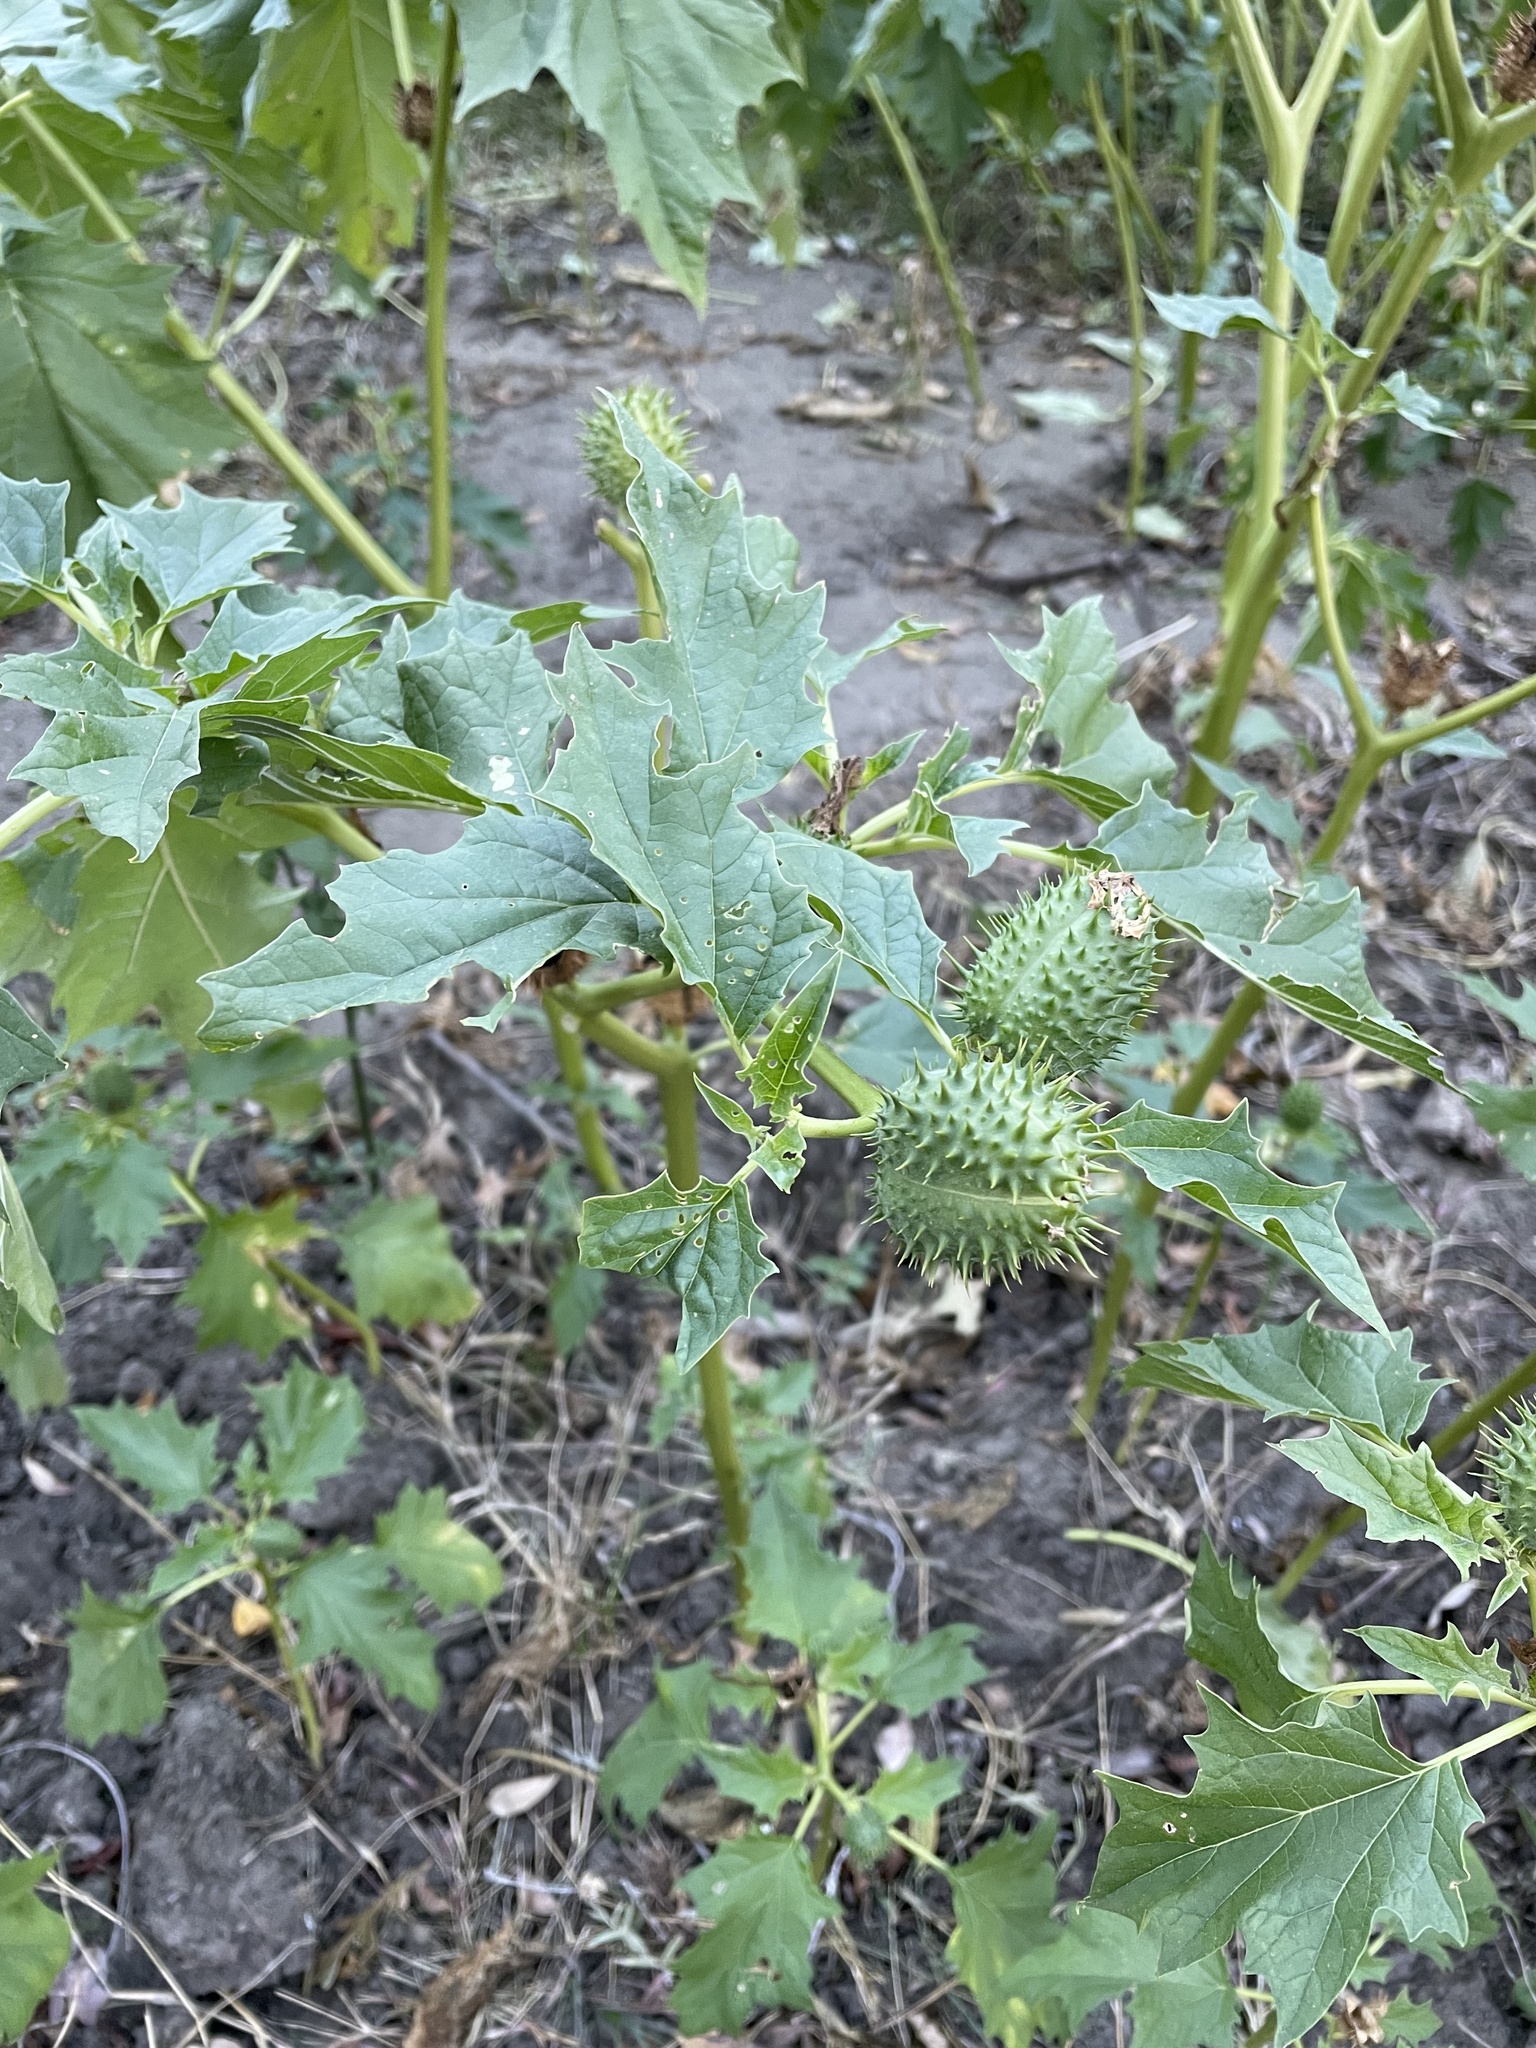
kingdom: Plantae
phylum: Tracheophyta
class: Magnoliopsida
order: Solanales
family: Solanaceae
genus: Datura
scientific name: Datura stramonium
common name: Thorn-apple
